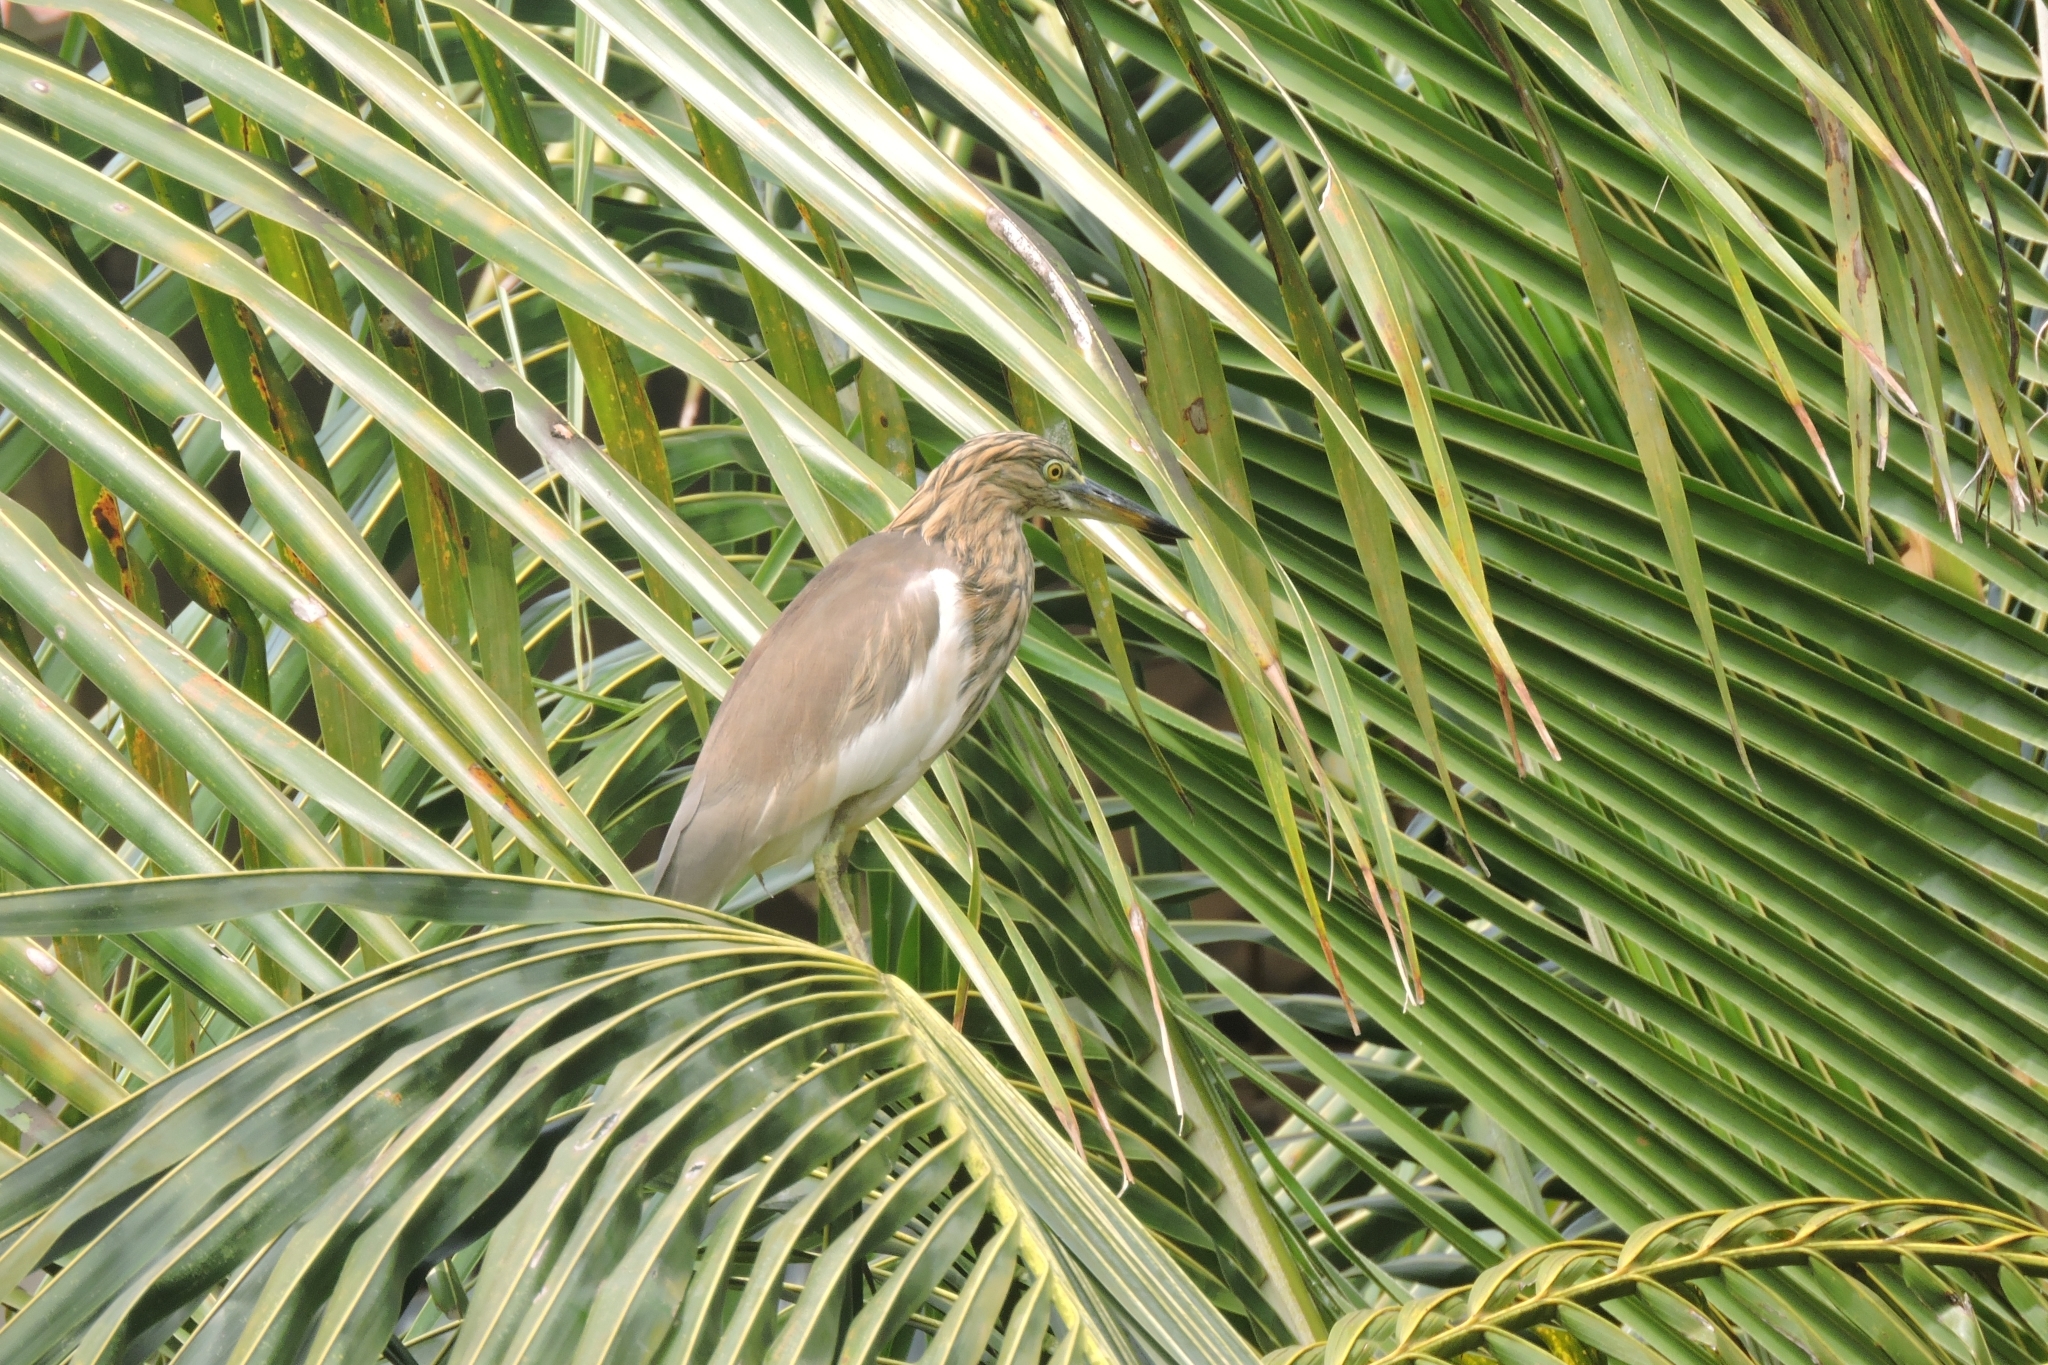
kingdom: Animalia
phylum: Chordata
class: Aves
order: Pelecaniformes
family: Ardeidae
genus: Ardeola
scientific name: Ardeola grayii
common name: Indian pond heron
